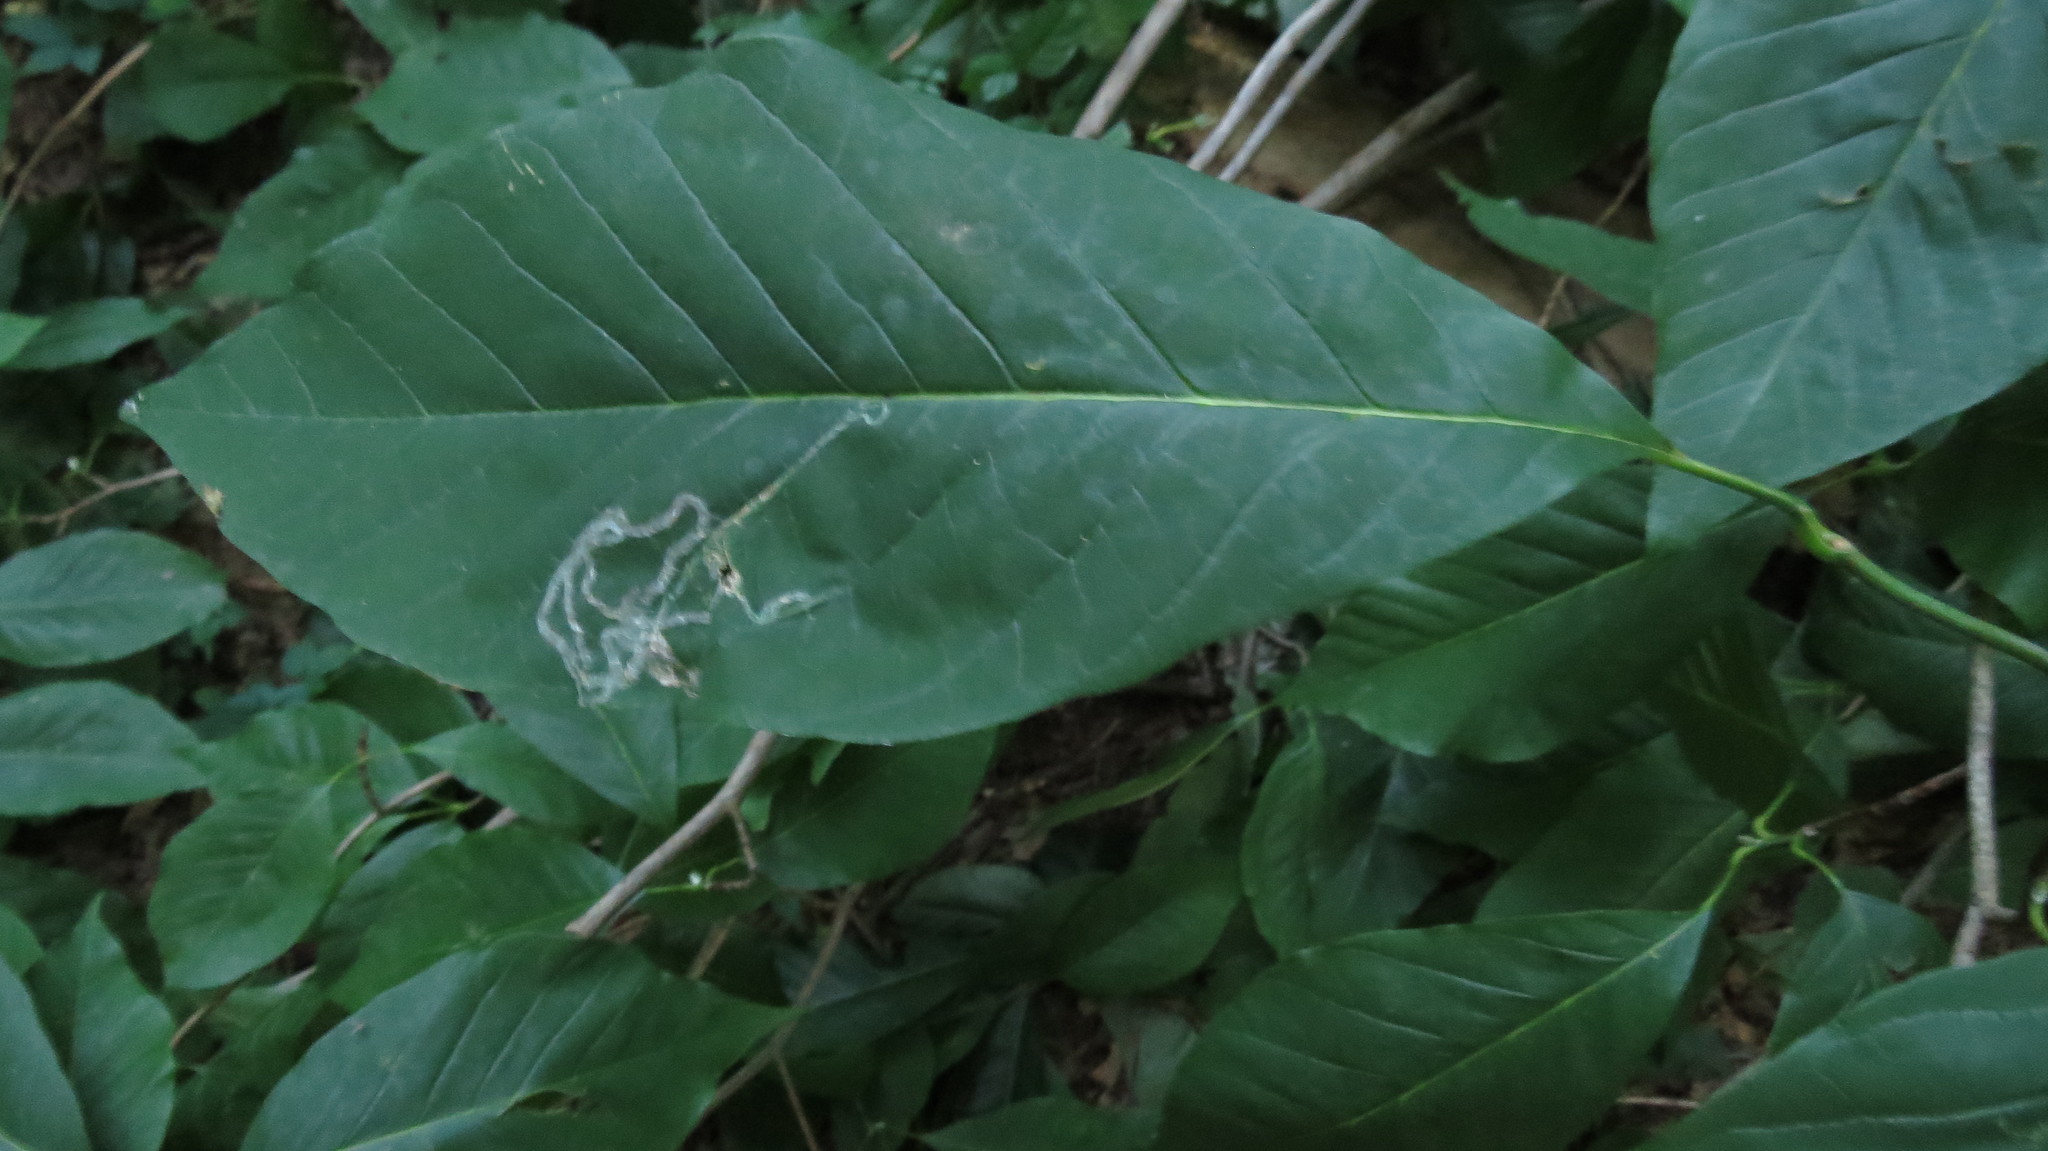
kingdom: Plantae
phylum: Tracheophyta
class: Magnoliopsida
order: Magnoliales
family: Magnoliaceae
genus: Magnolia
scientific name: Magnolia acuminata
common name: Cucumber magnolia
